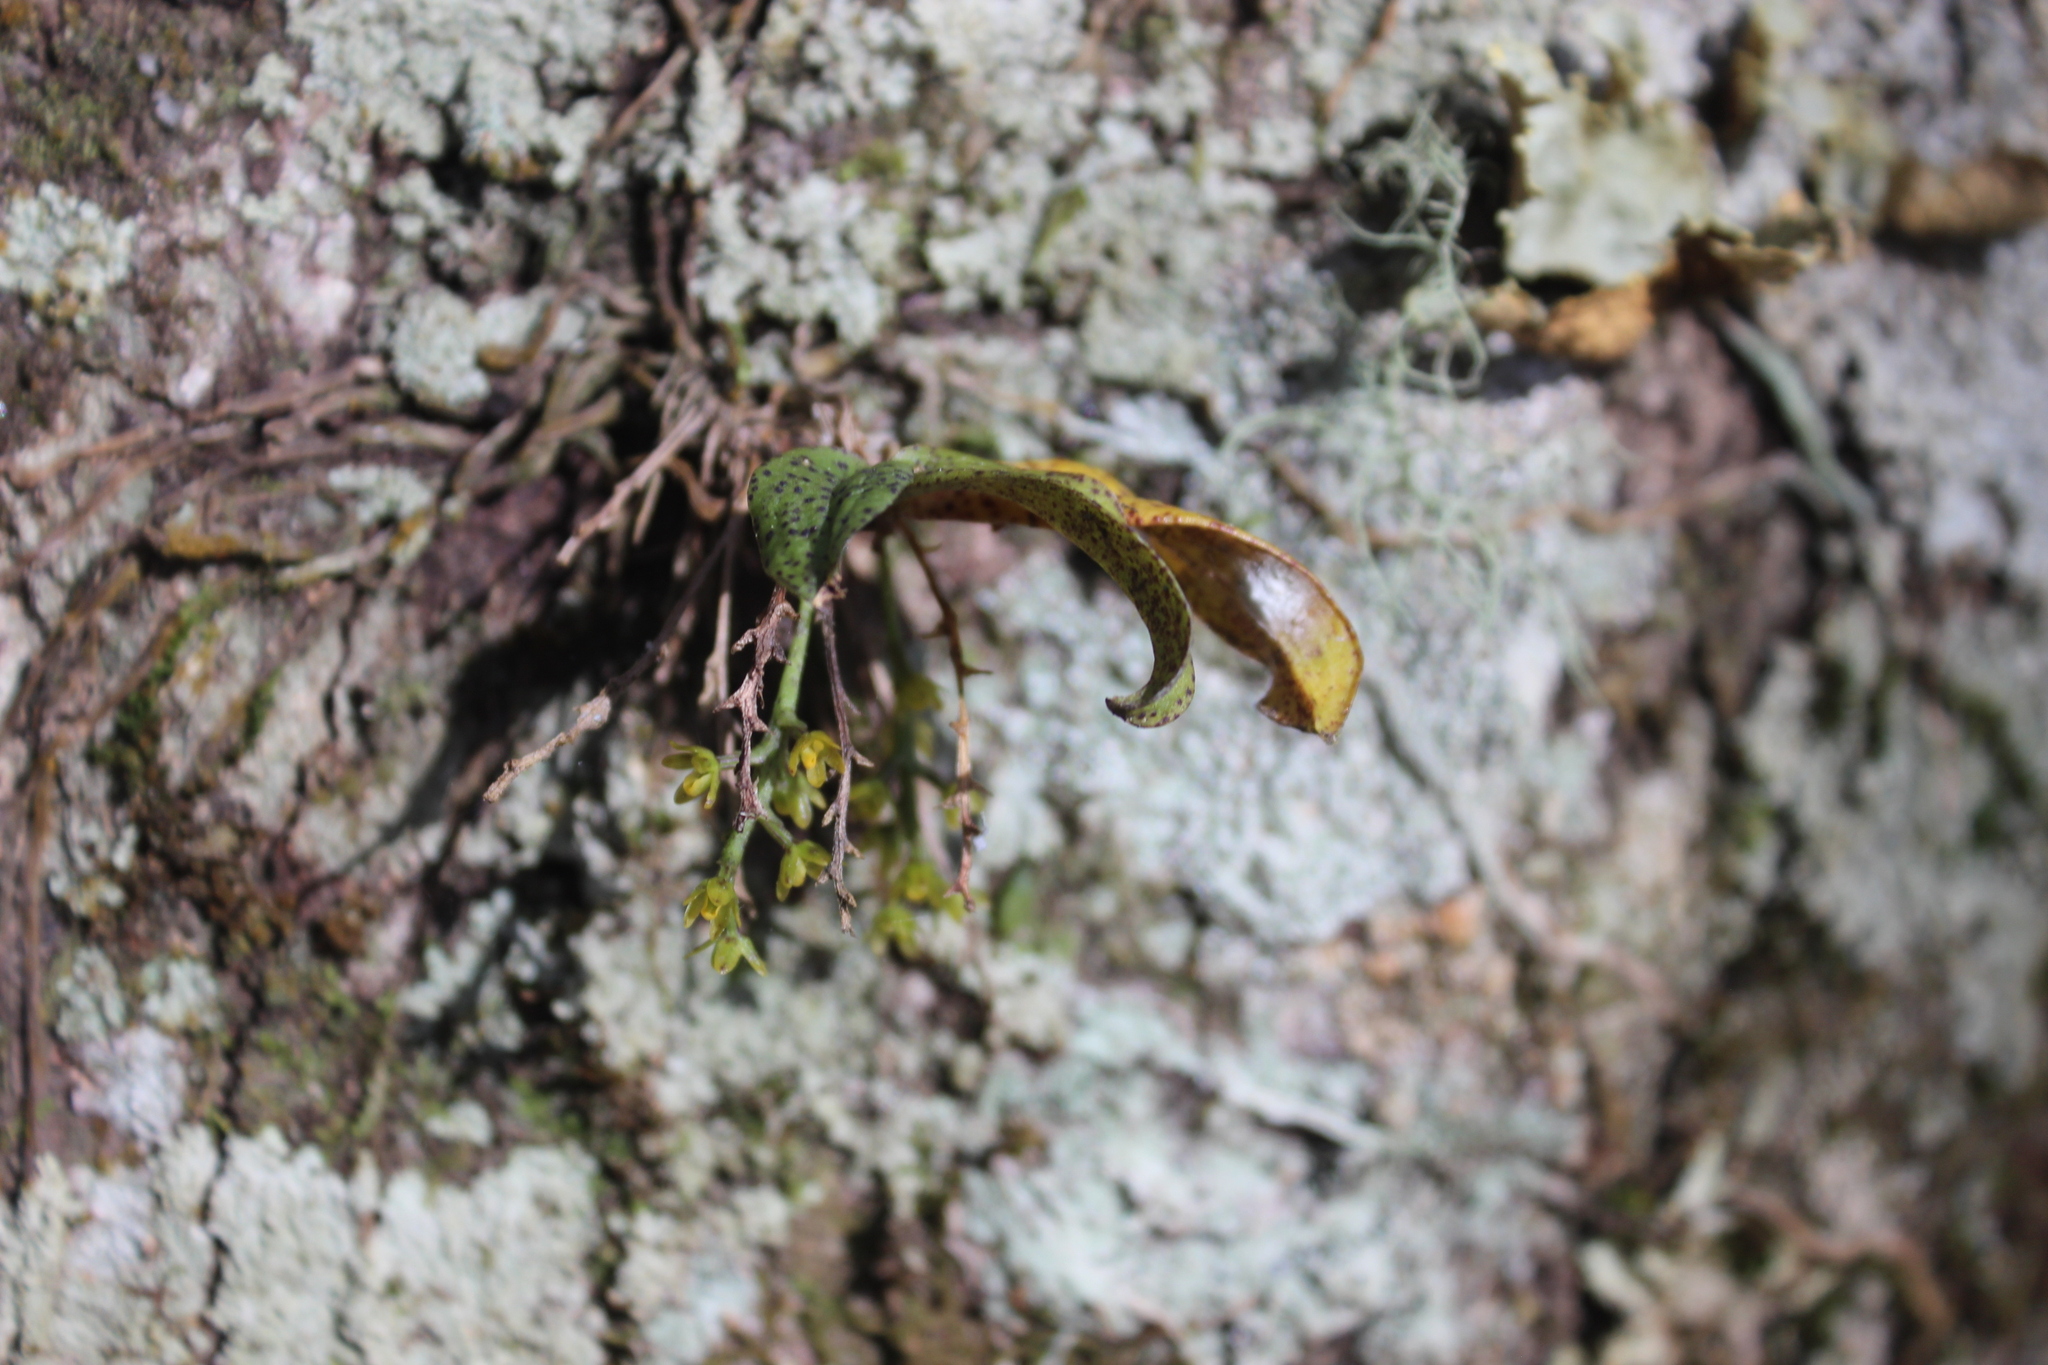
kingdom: Plantae
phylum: Tracheophyta
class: Liliopsida
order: Asparagales
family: Orchidaceae
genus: Drymoanthus
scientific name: Drymoanthus flavus
